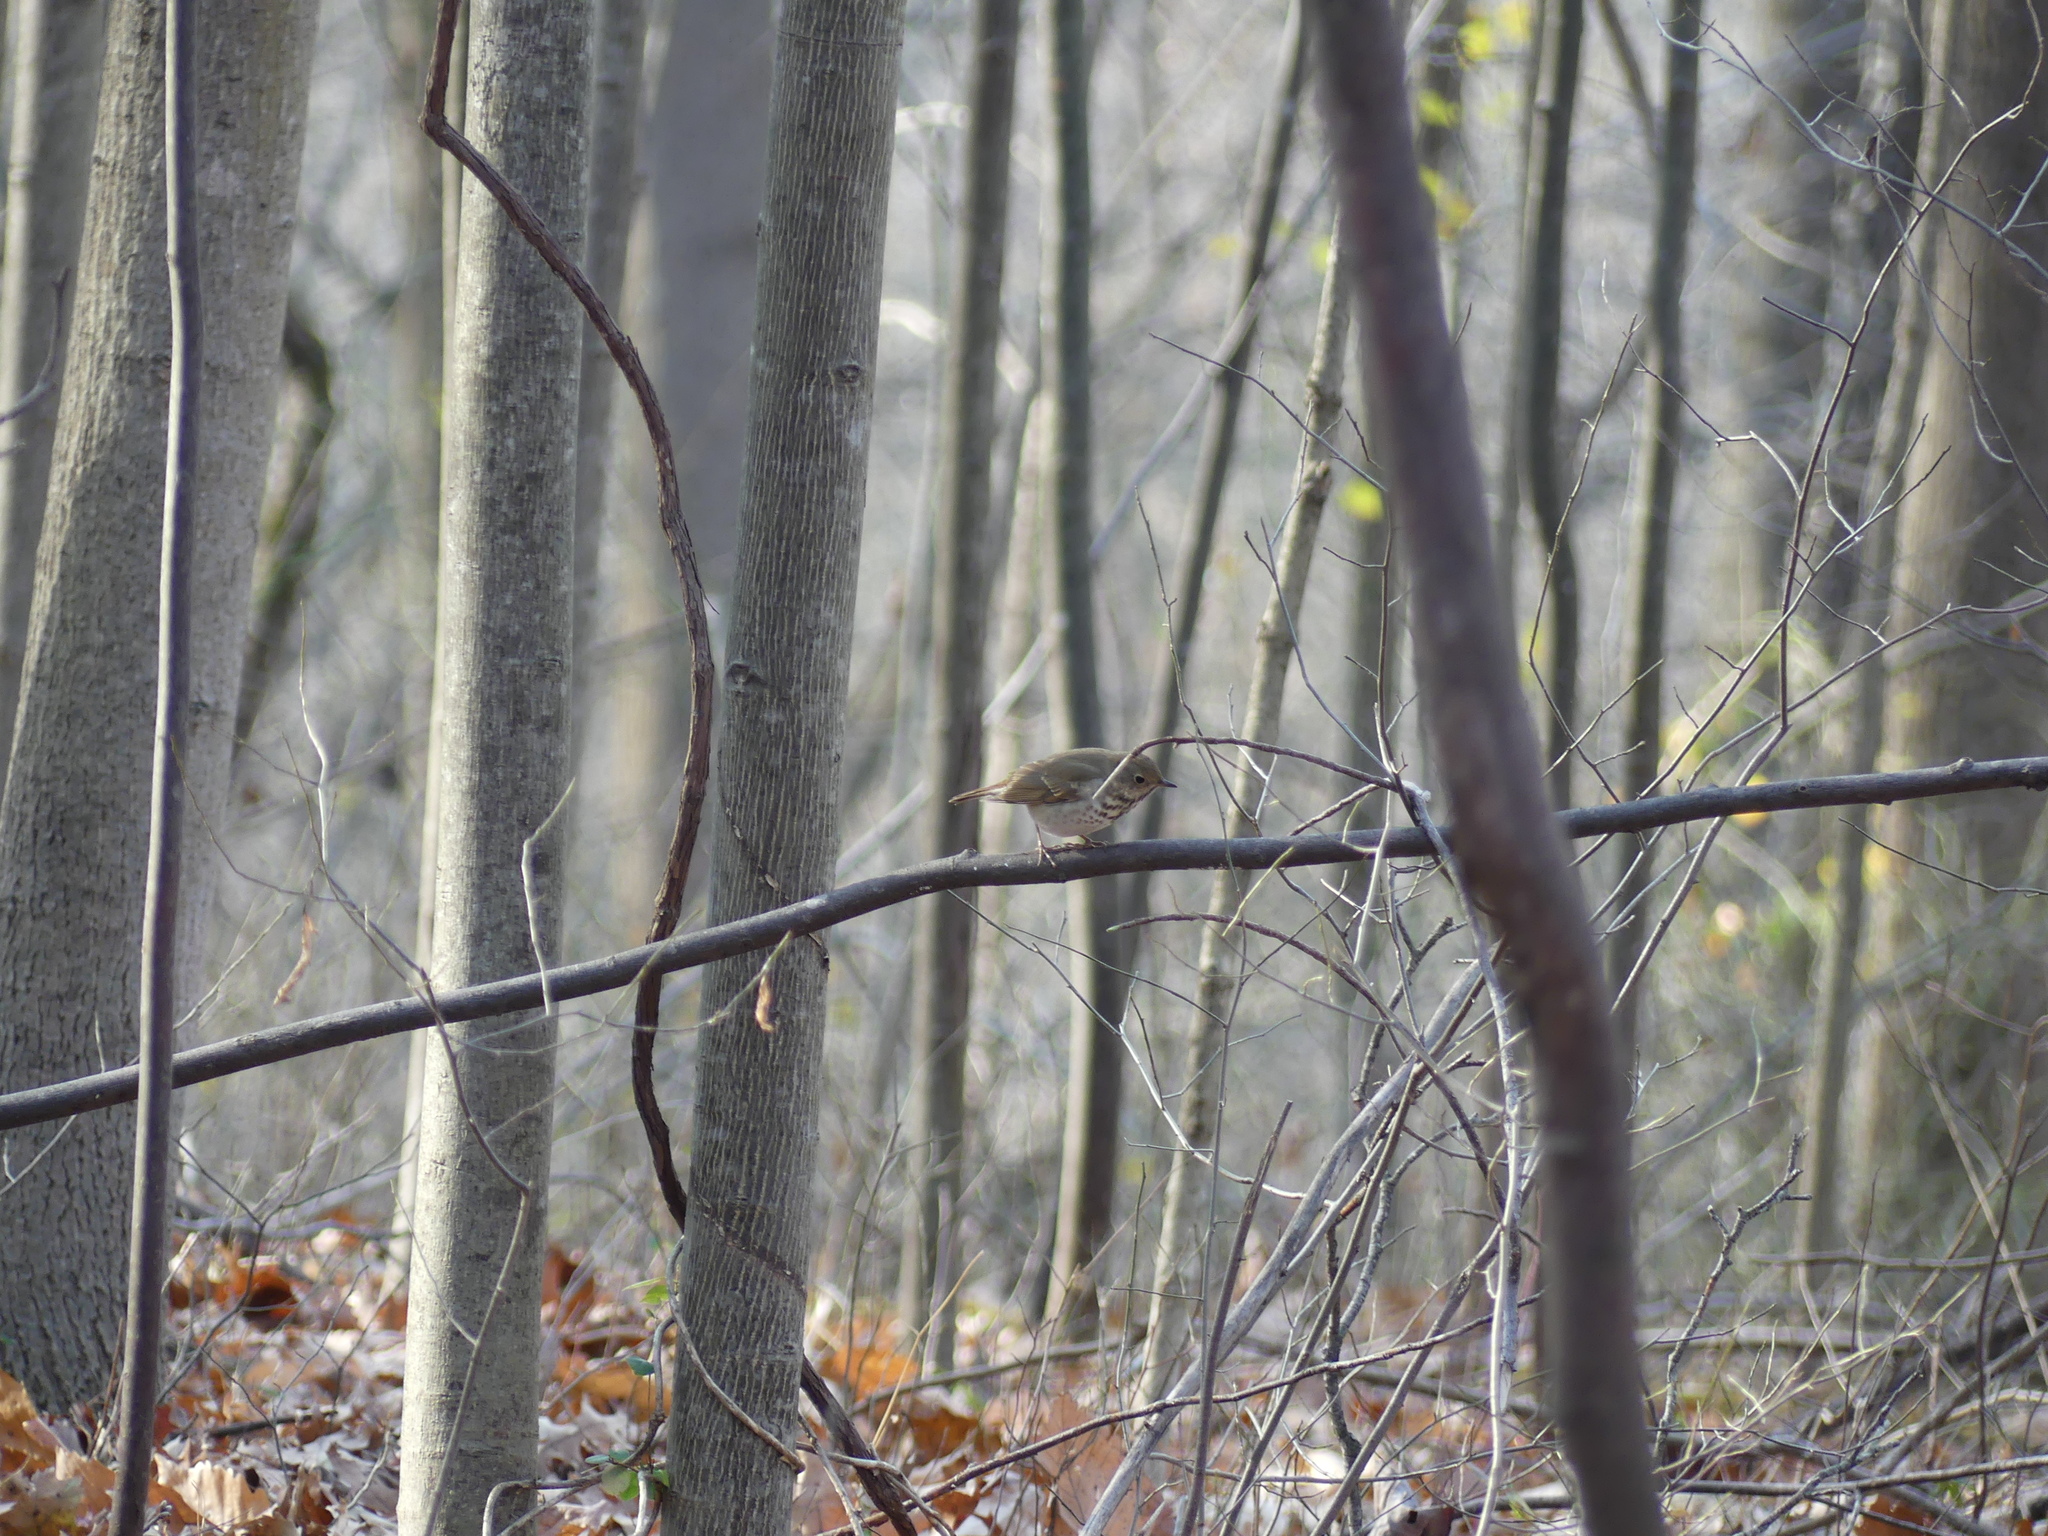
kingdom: Animalia
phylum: Chordata
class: Aves
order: Passeriformes
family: Turdidae
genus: Catharus
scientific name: Catharus guttatus
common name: Hermit thrush
